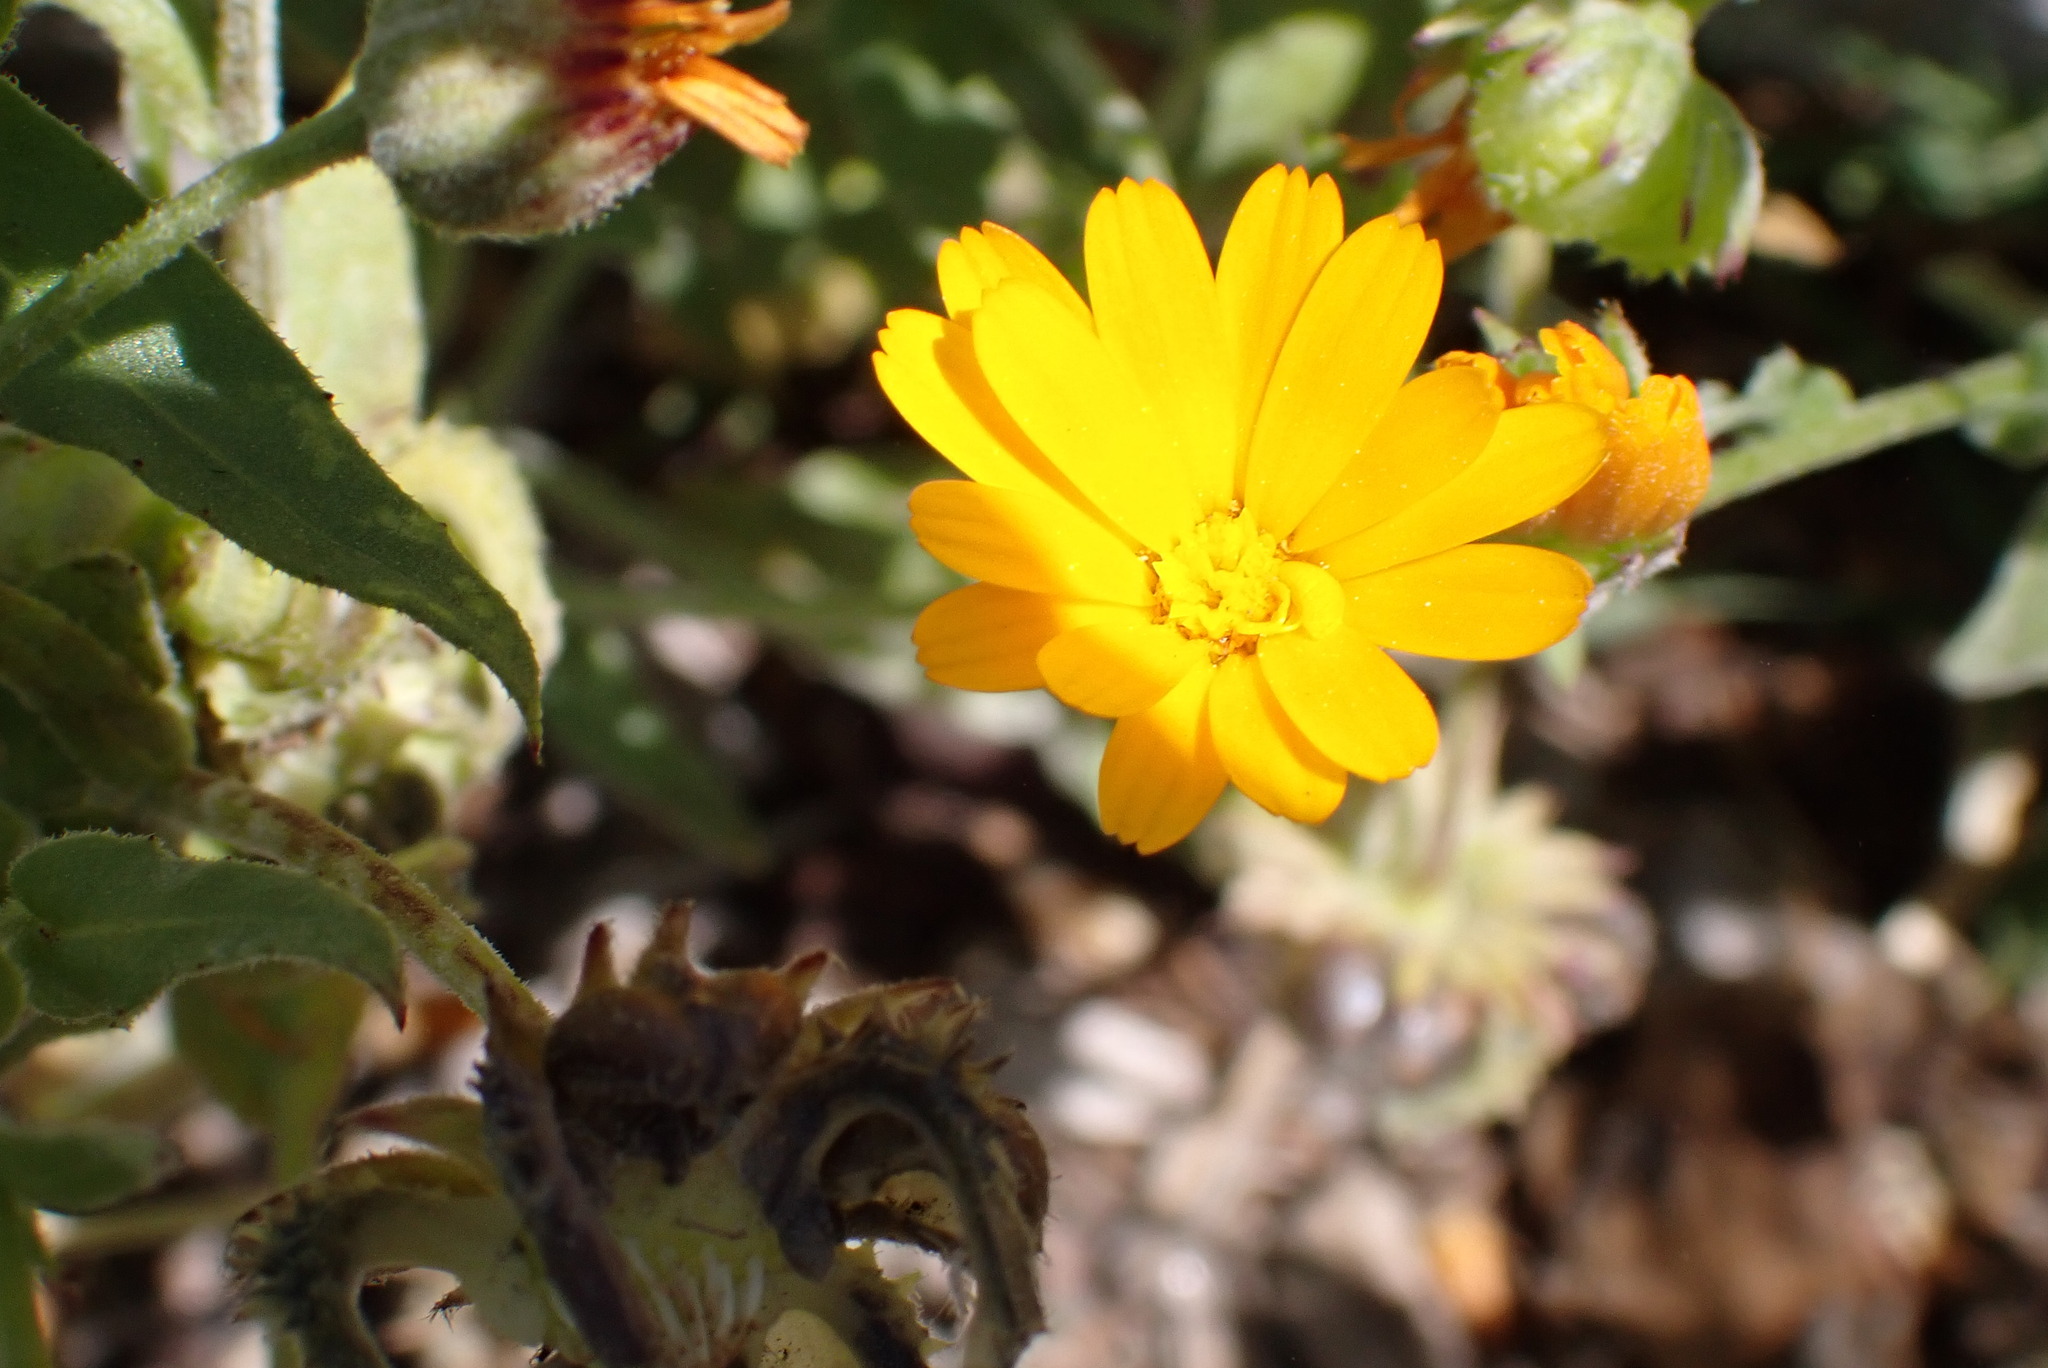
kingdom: Plantae
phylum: Tracheophyta
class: Magnoliopsida
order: Asterales
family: Asteraceae
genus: Calendula
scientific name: Calendula arvensis
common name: Field marigold
